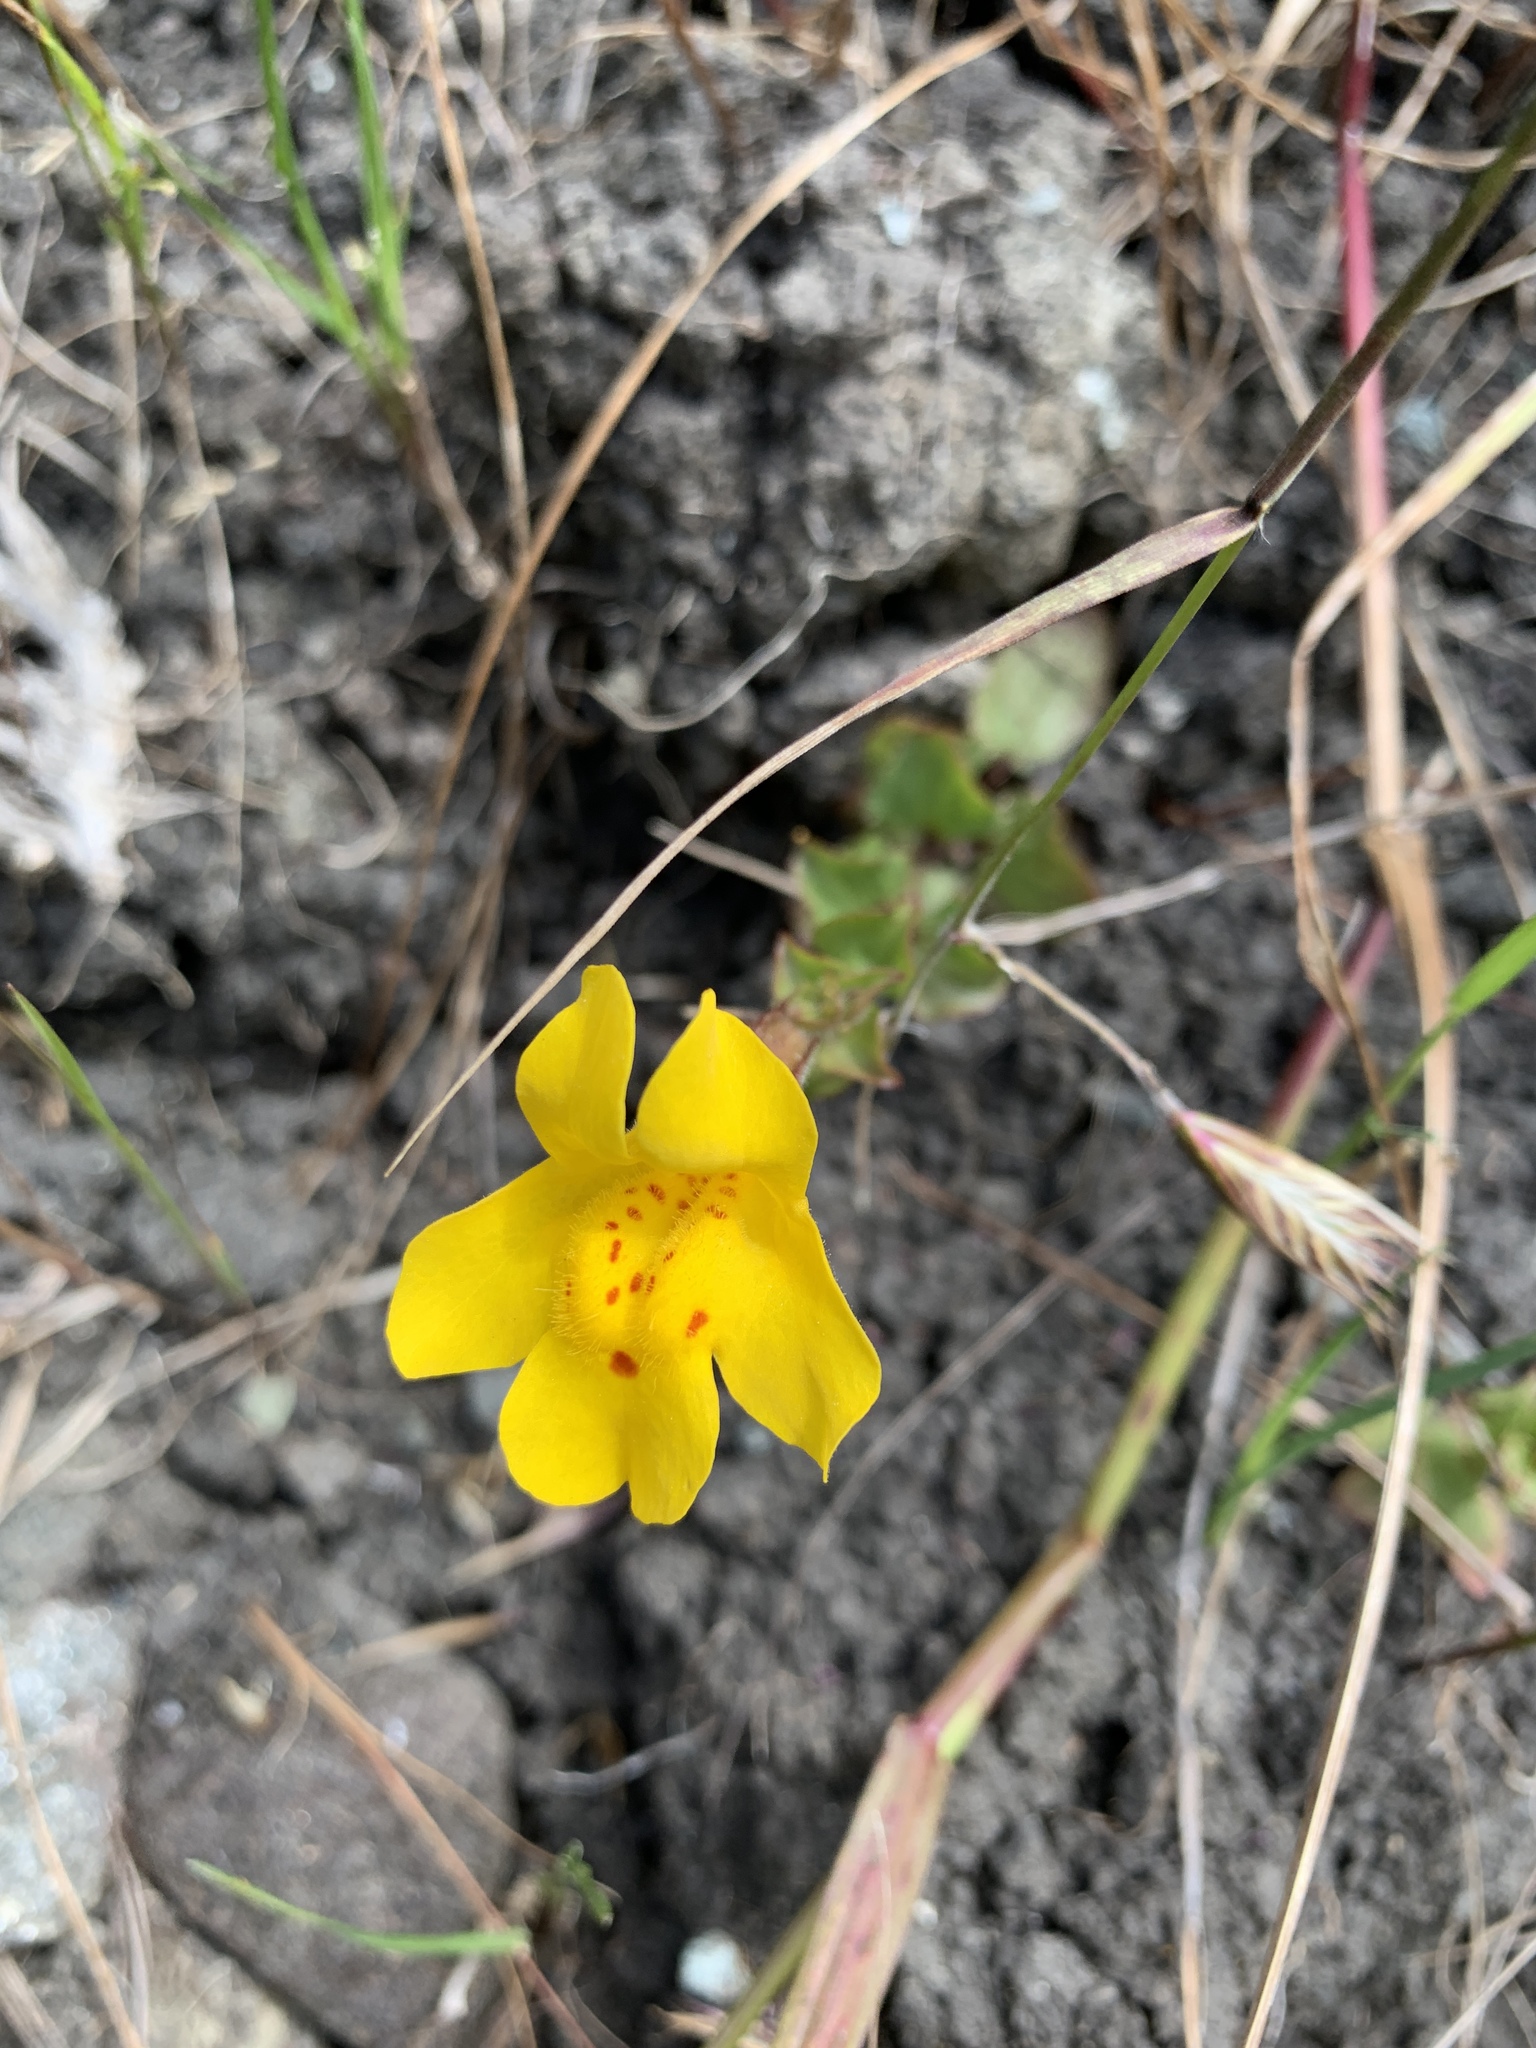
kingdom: Plantae
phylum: Tracheophyta
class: Magnoliopsida
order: Lamiales
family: Phrymaceae
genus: Erythranthe
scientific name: Erythranthe guttata
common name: Monkeyflower
